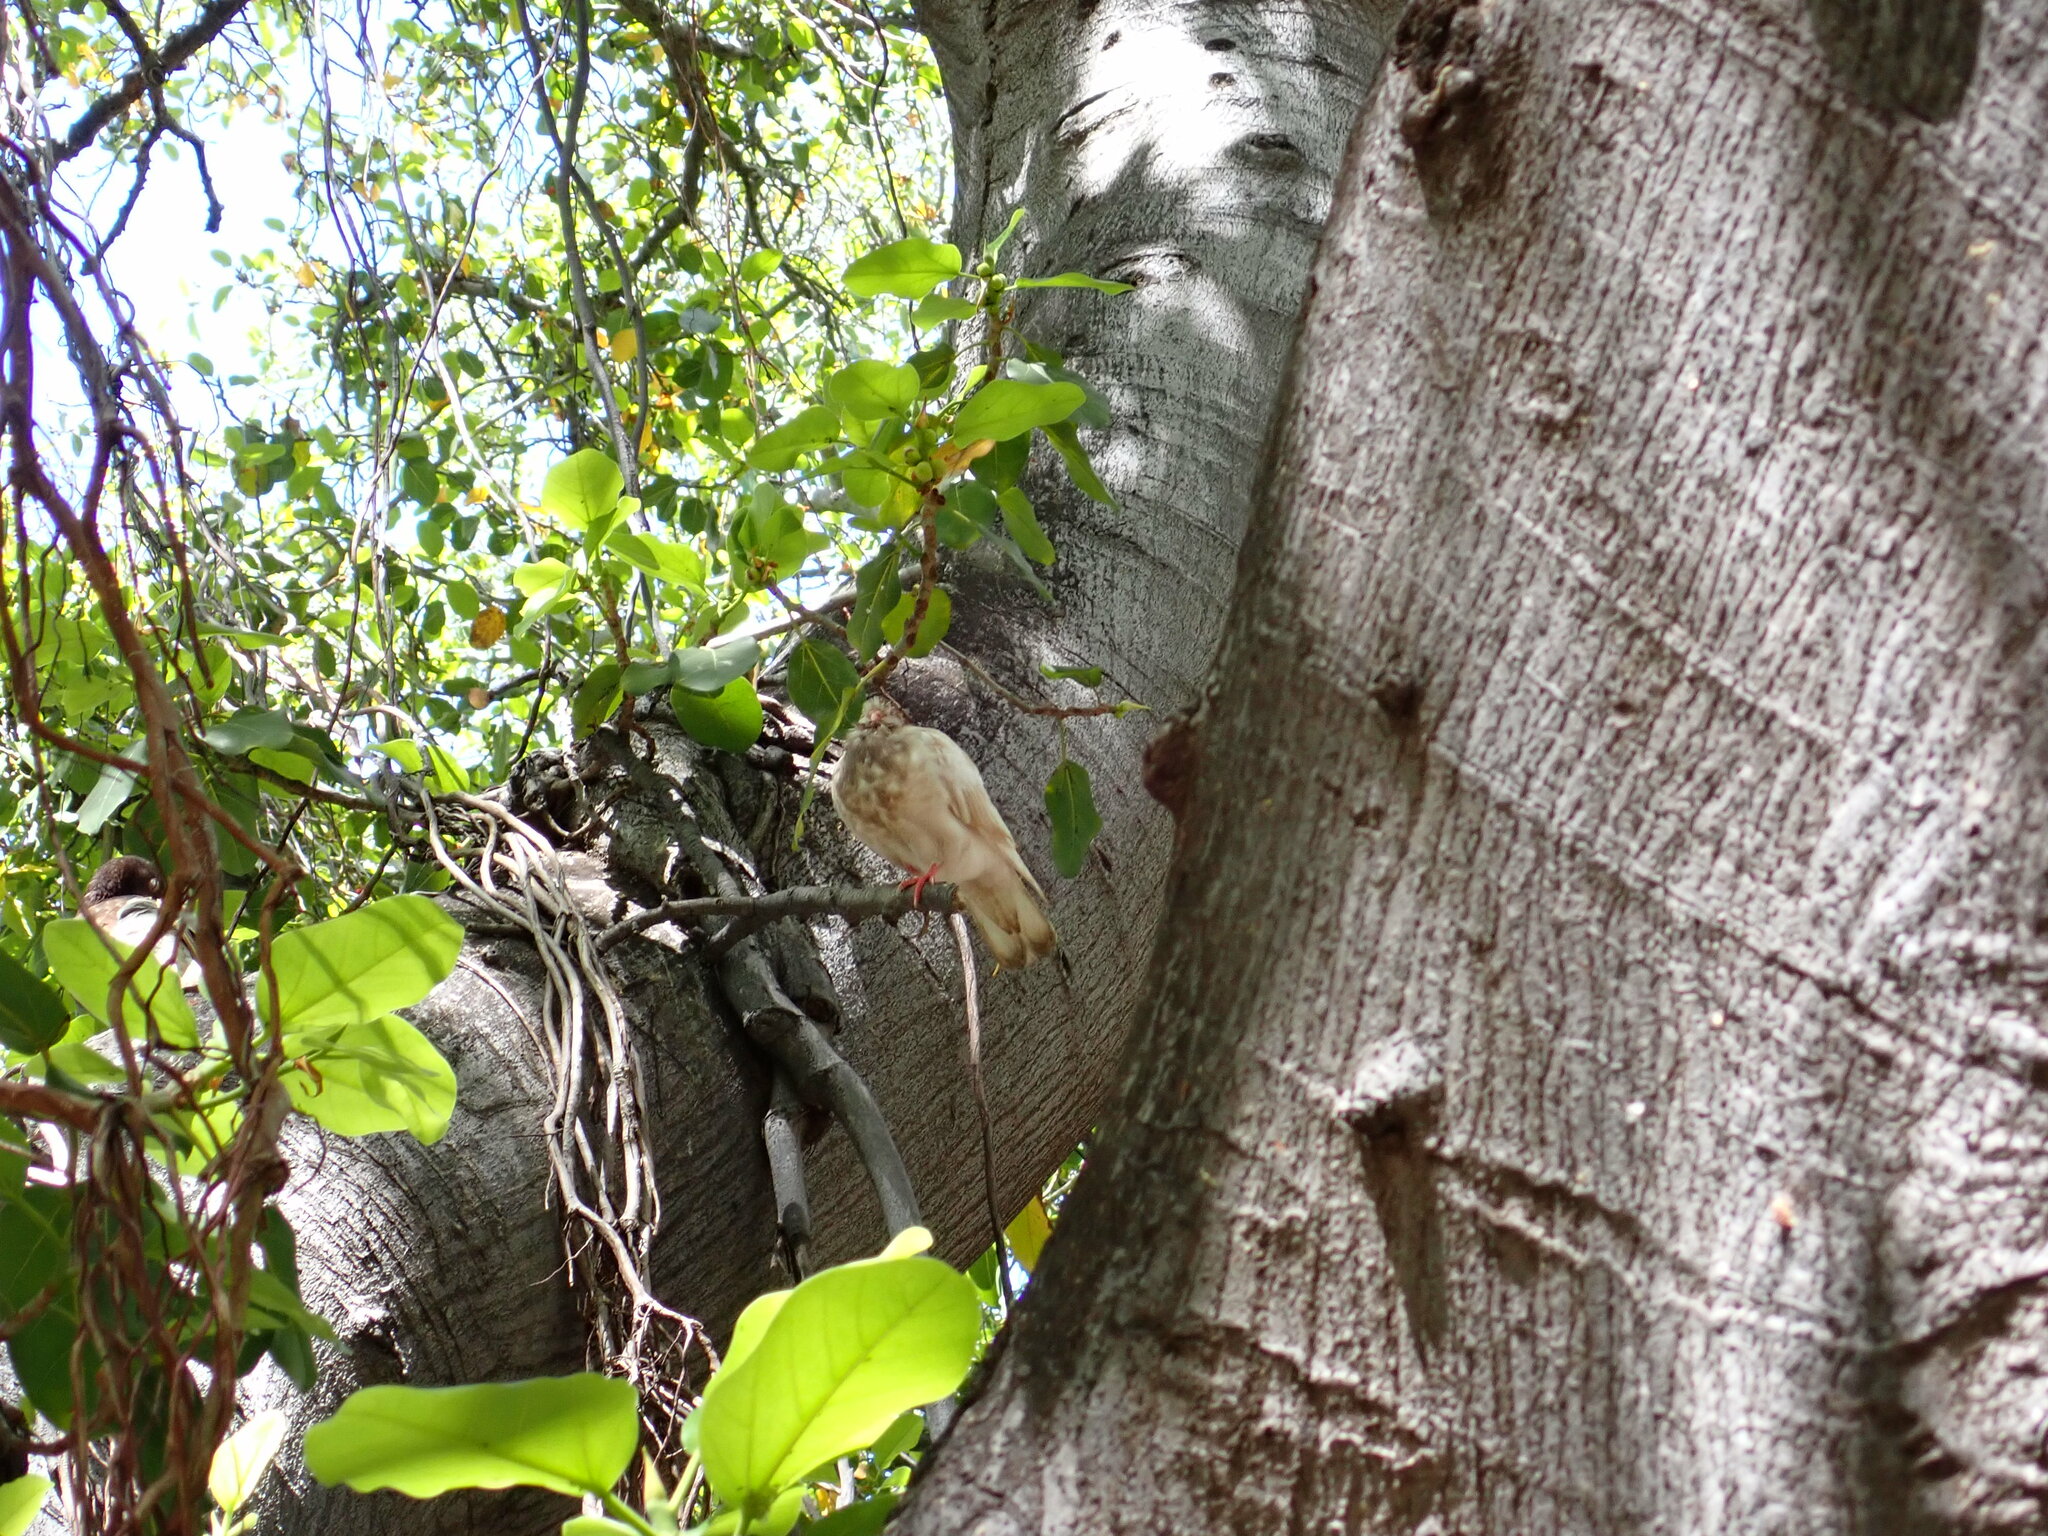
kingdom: Animalia
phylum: Chordata
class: Aves
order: Columbiformes
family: Columbidae
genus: Columba
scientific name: Columba livia
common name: Rock pigeon
